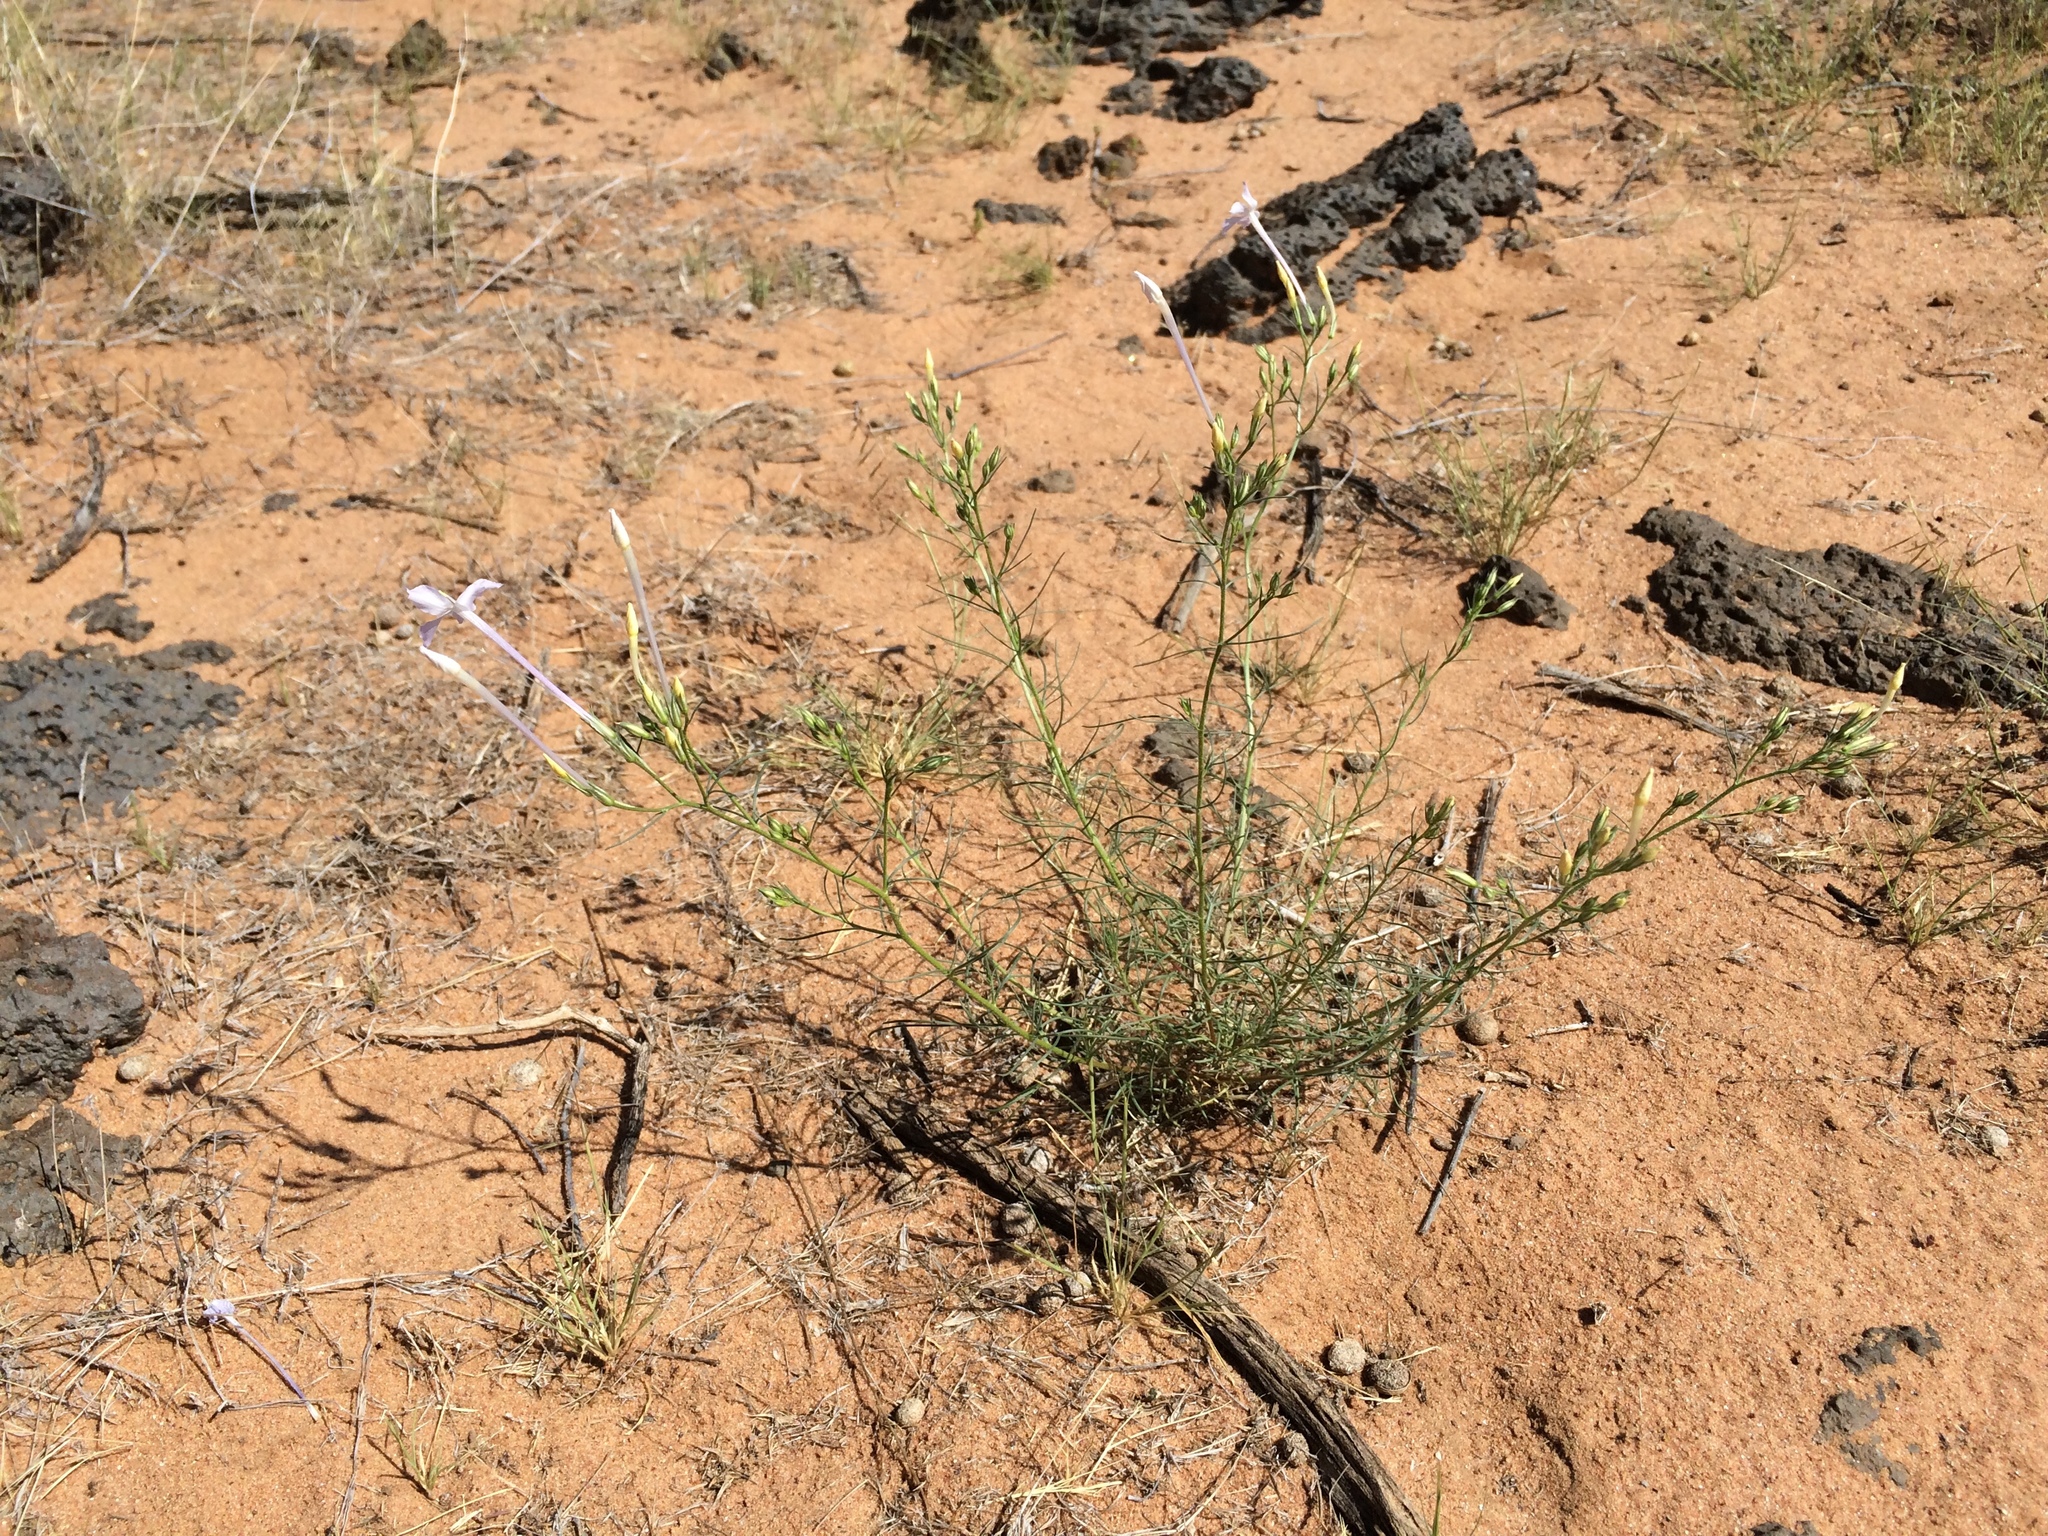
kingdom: Plantae
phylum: Tracheophyta
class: Magnoliopsida
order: Ericales
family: Polemoniaceae
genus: Ipomopsis
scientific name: Ipomopsis longiflora
